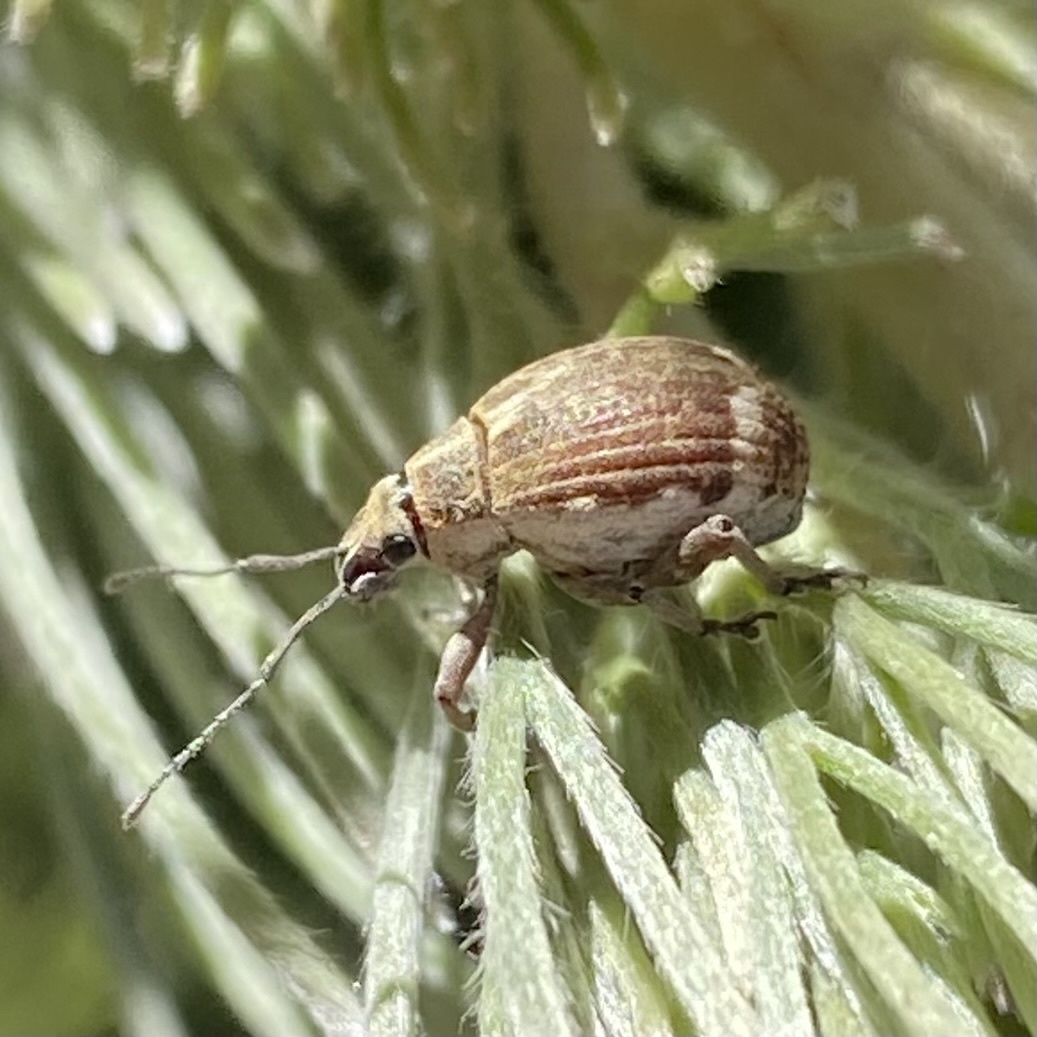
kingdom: Animalia
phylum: Arthropoda
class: Insecta
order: Coleoptera
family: Curculionidae
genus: Sciobius
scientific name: Sciobius pullus
